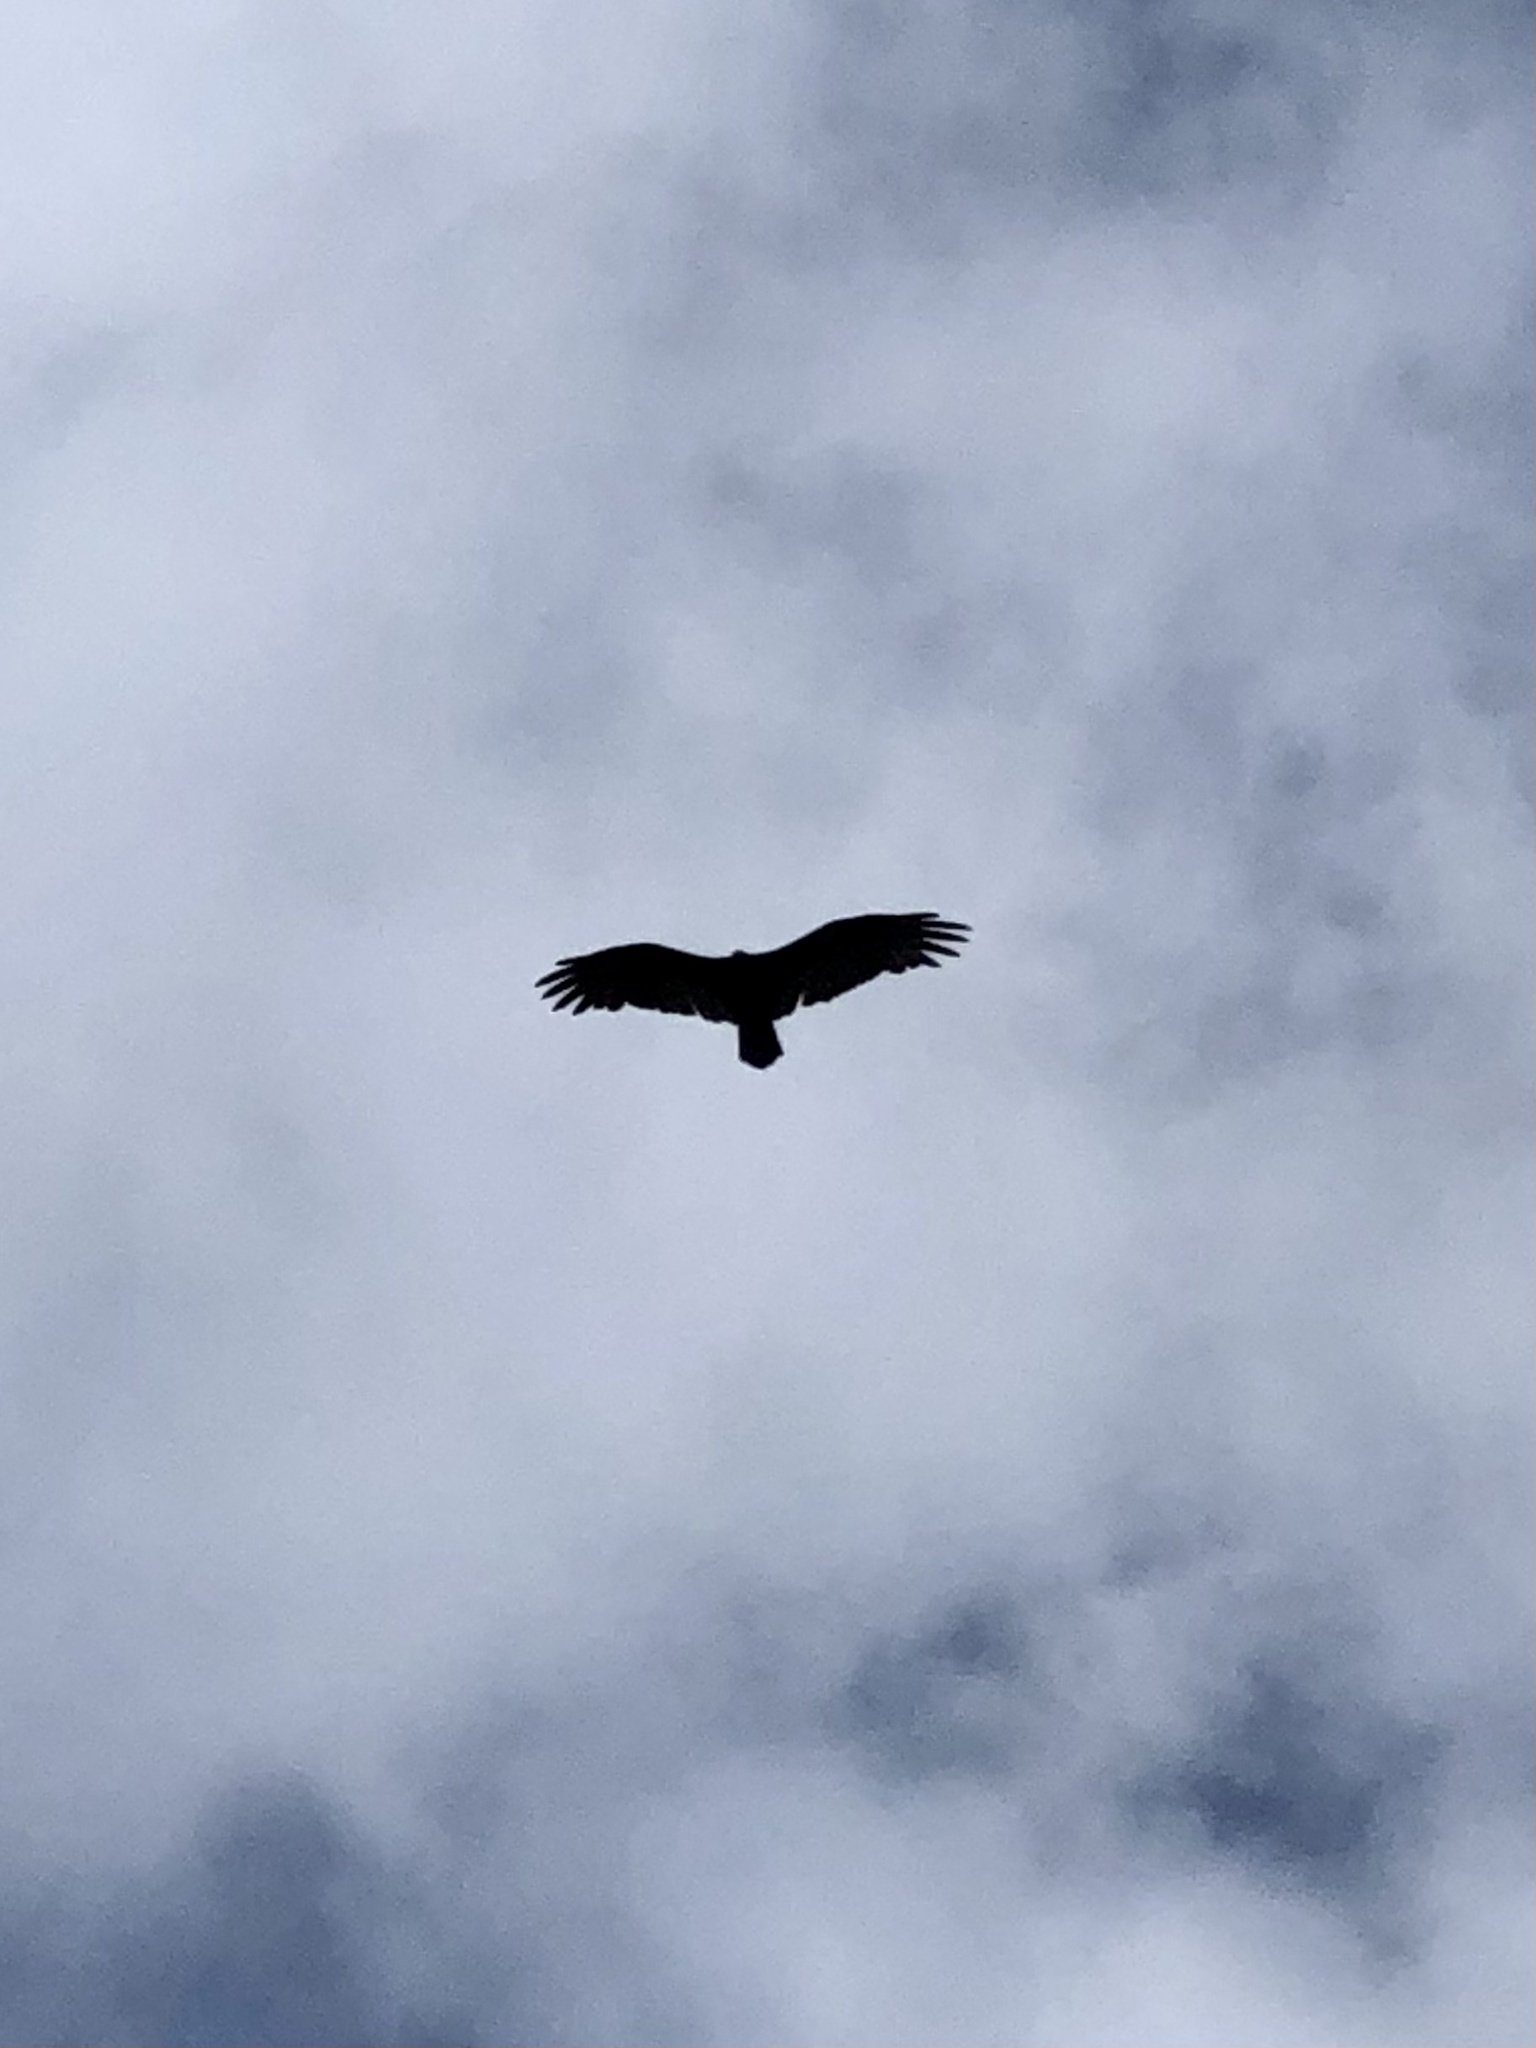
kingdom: Animalia
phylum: Chordata
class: Aves
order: Accipitriformes
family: Cathartidae
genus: Cathartes
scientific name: Cathartes aura
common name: Turkey vulture
